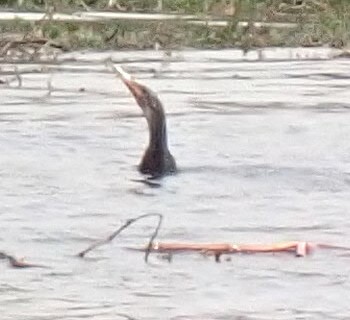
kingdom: Animalia
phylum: Chordata
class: Aves
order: Suliformes
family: Anhingidae
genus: Anhinga
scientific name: Anhinga anhinga
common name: Anhinga
